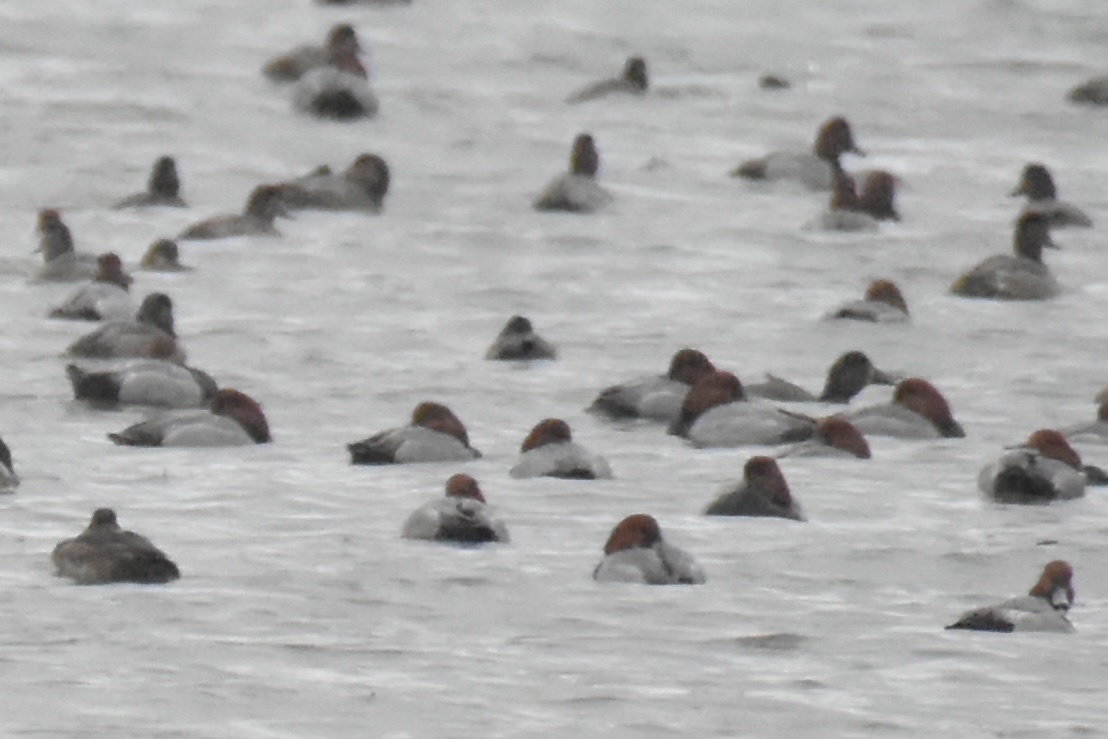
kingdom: Animalia
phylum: Chordata
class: Aves
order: Anseriformes
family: Anatidae
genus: Aythya
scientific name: Aythya americana
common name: Redhead
